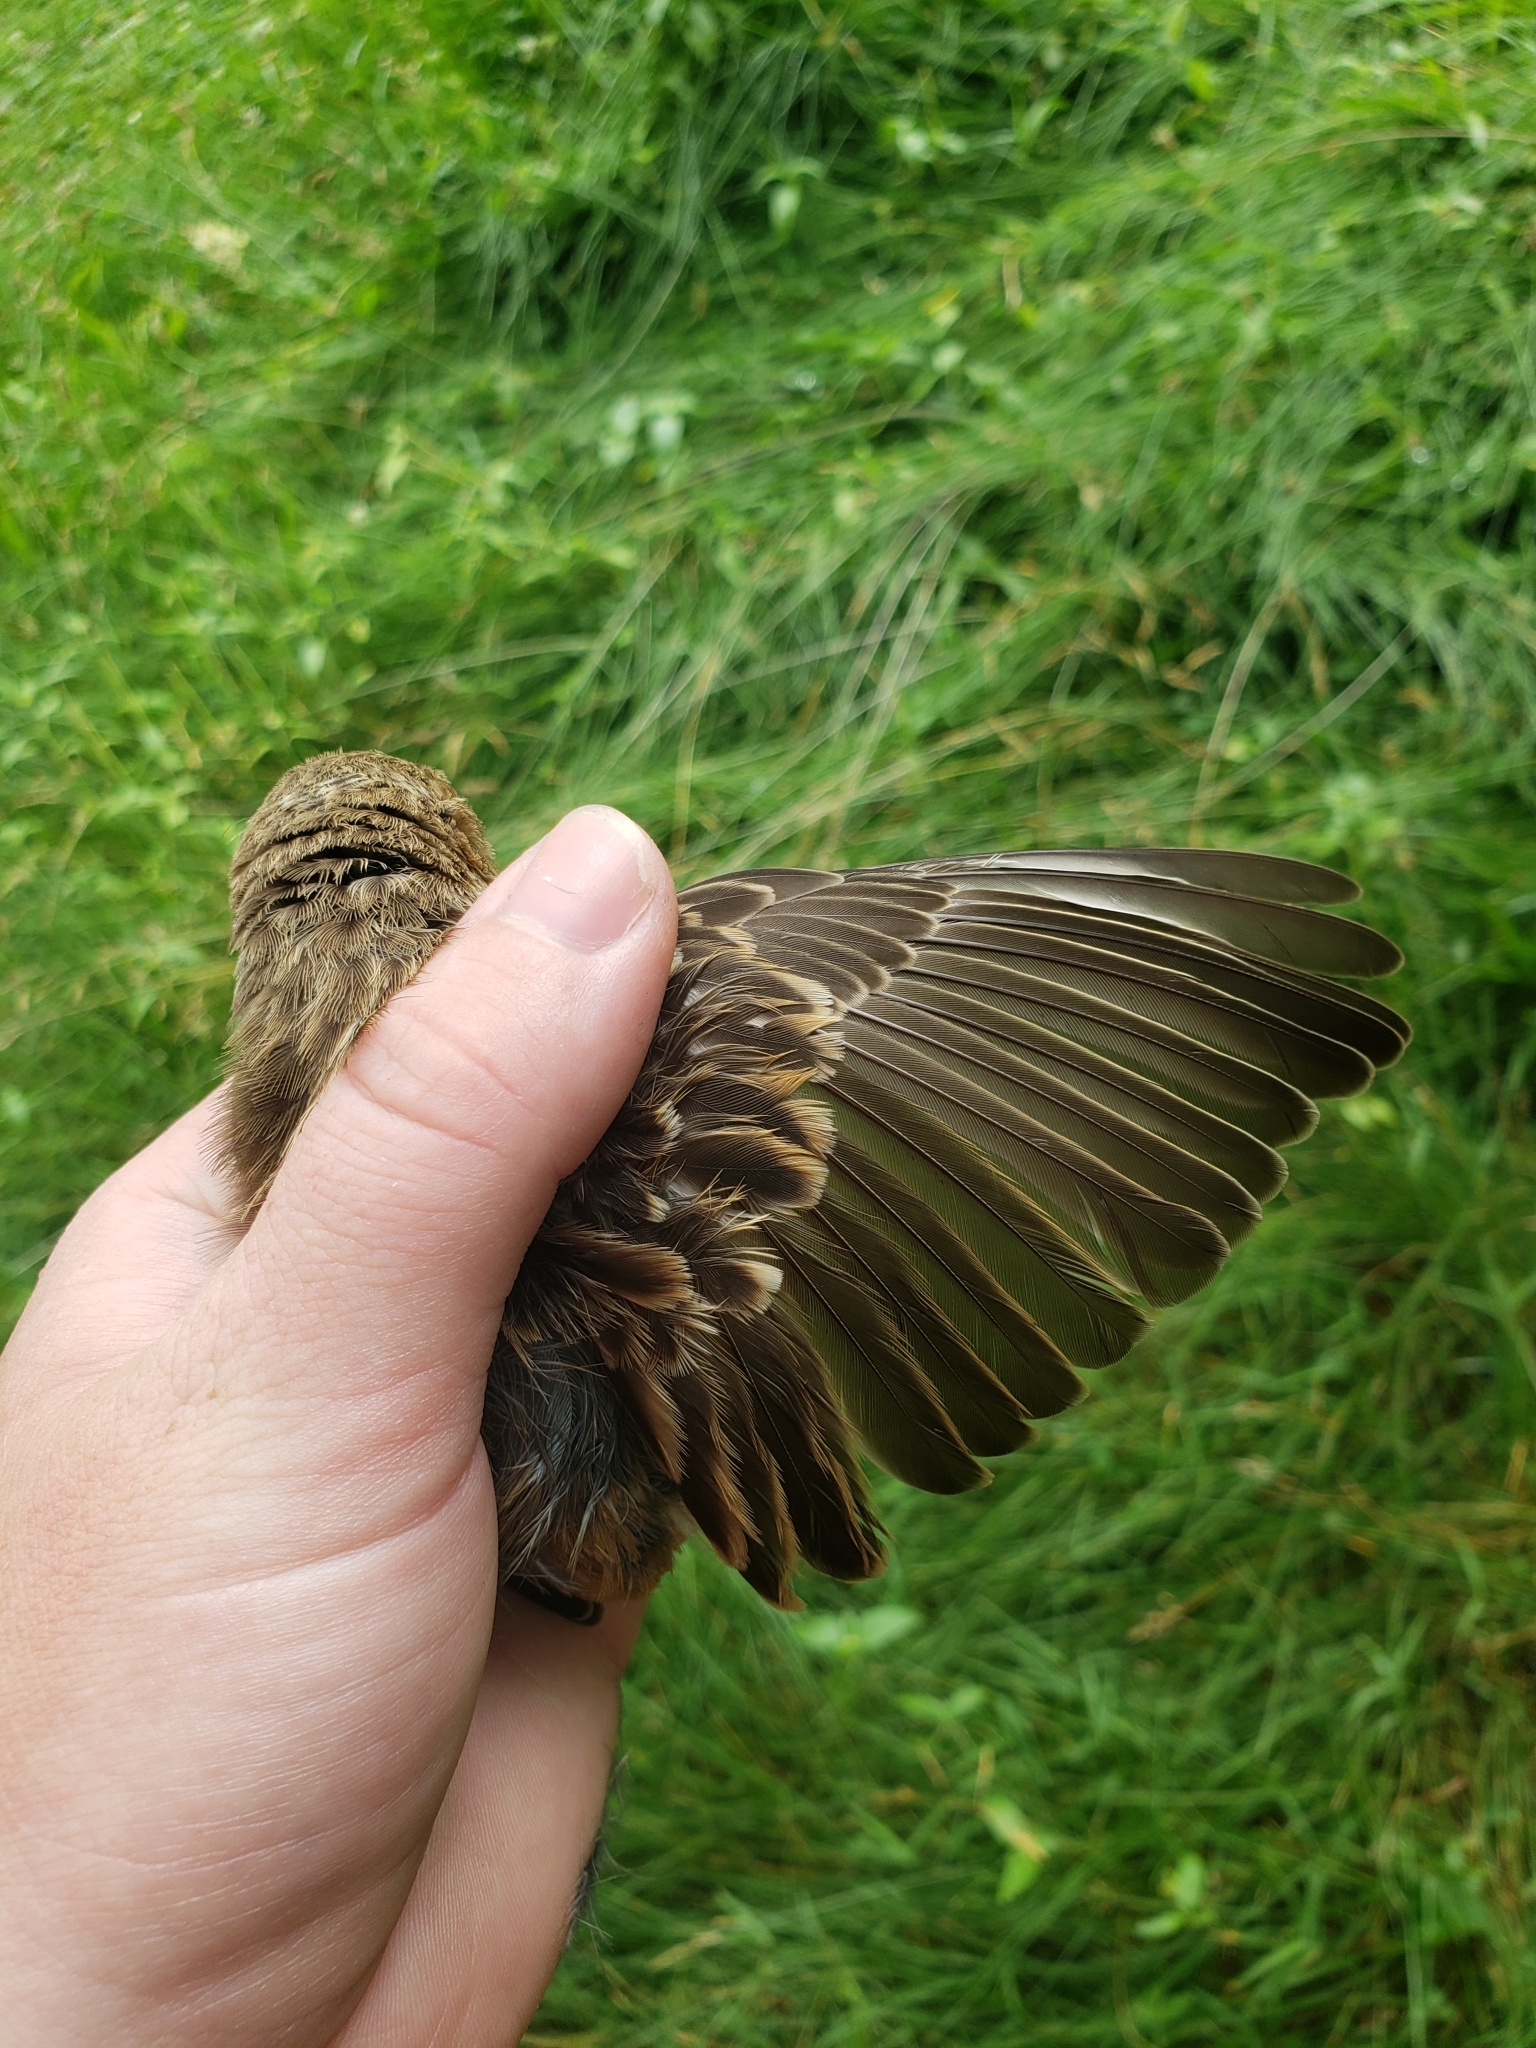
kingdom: Animalia
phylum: Chordata
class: Aves
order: Passeriformes
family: Fringillidae
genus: Haemorhous
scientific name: Haemorhous mexicanus
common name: House finch
